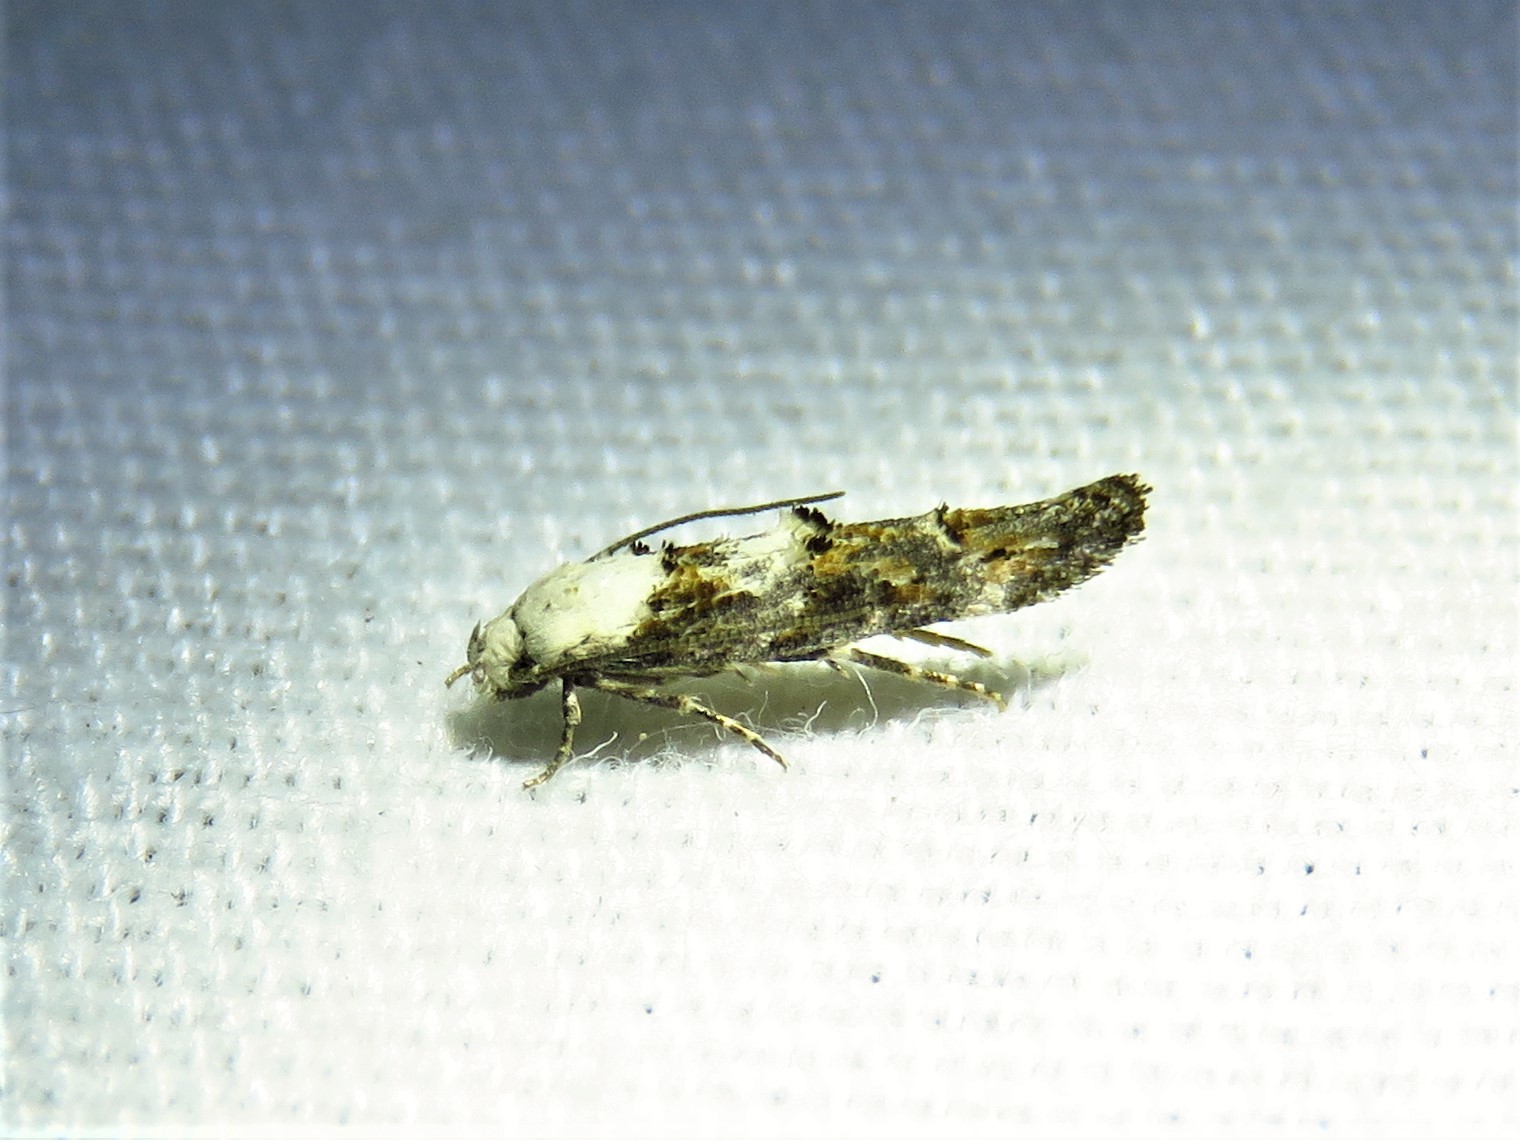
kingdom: Animalia
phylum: Arthropoda
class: Insecta
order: Lepidoptera
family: Momphidae
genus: Mompha
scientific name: Mompha albocapitella
